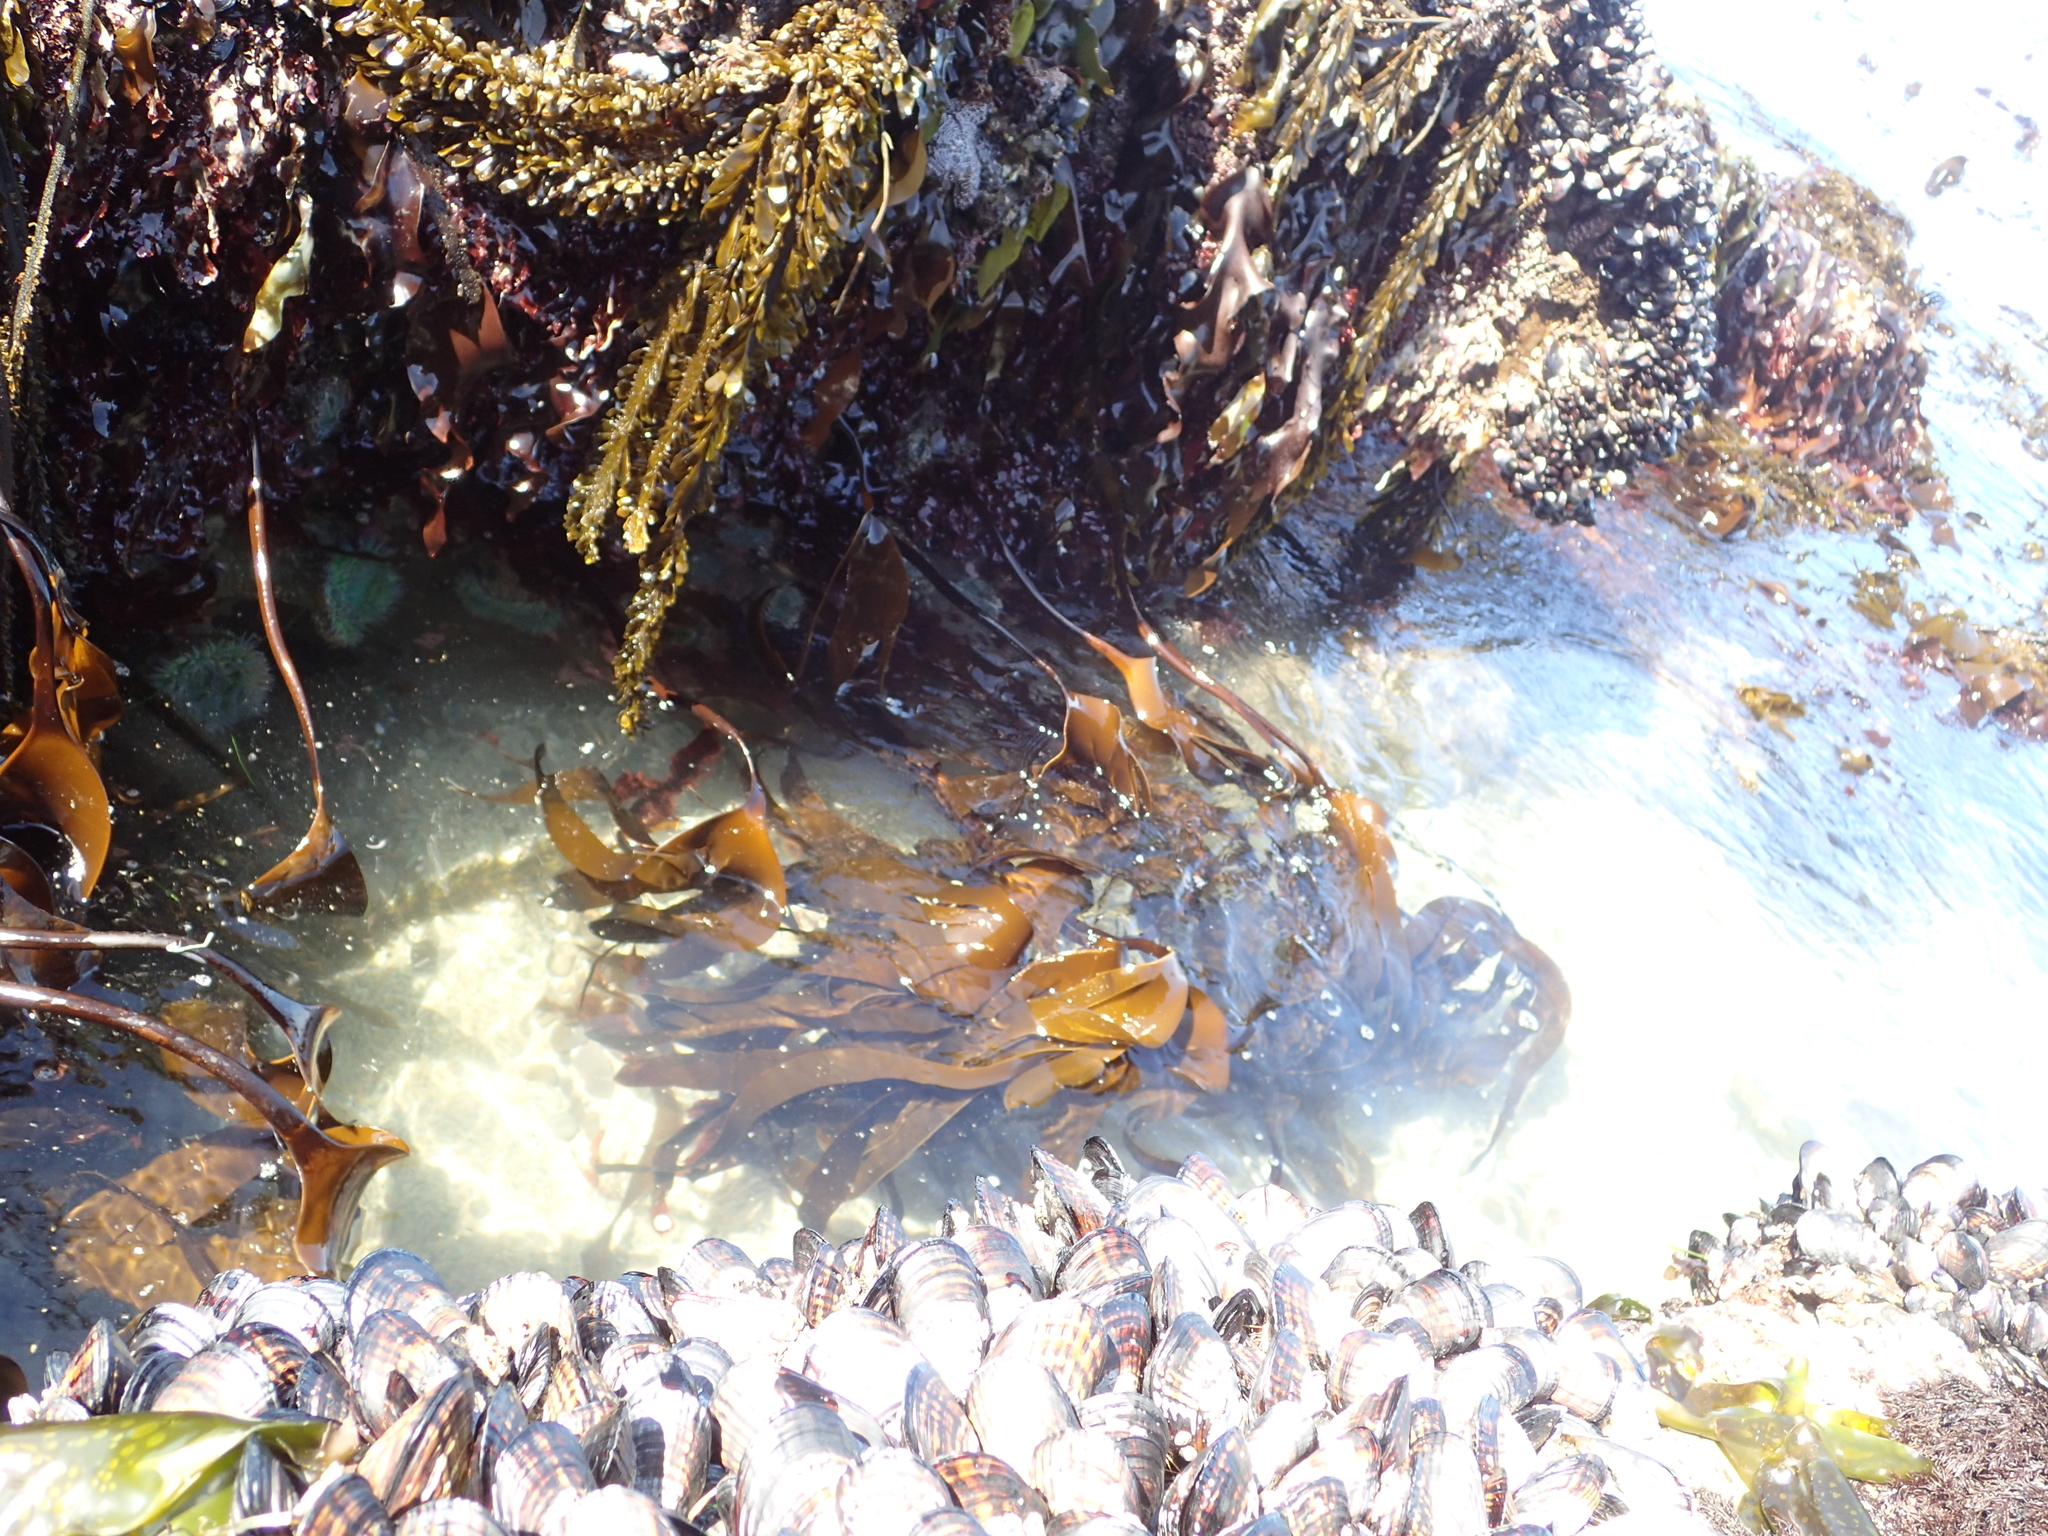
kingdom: Chromista
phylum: Ochrophyta
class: Phaeophyceae
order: Laminariales
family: Laminariaceae
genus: Laminaria
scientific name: Laminaria setchellii
